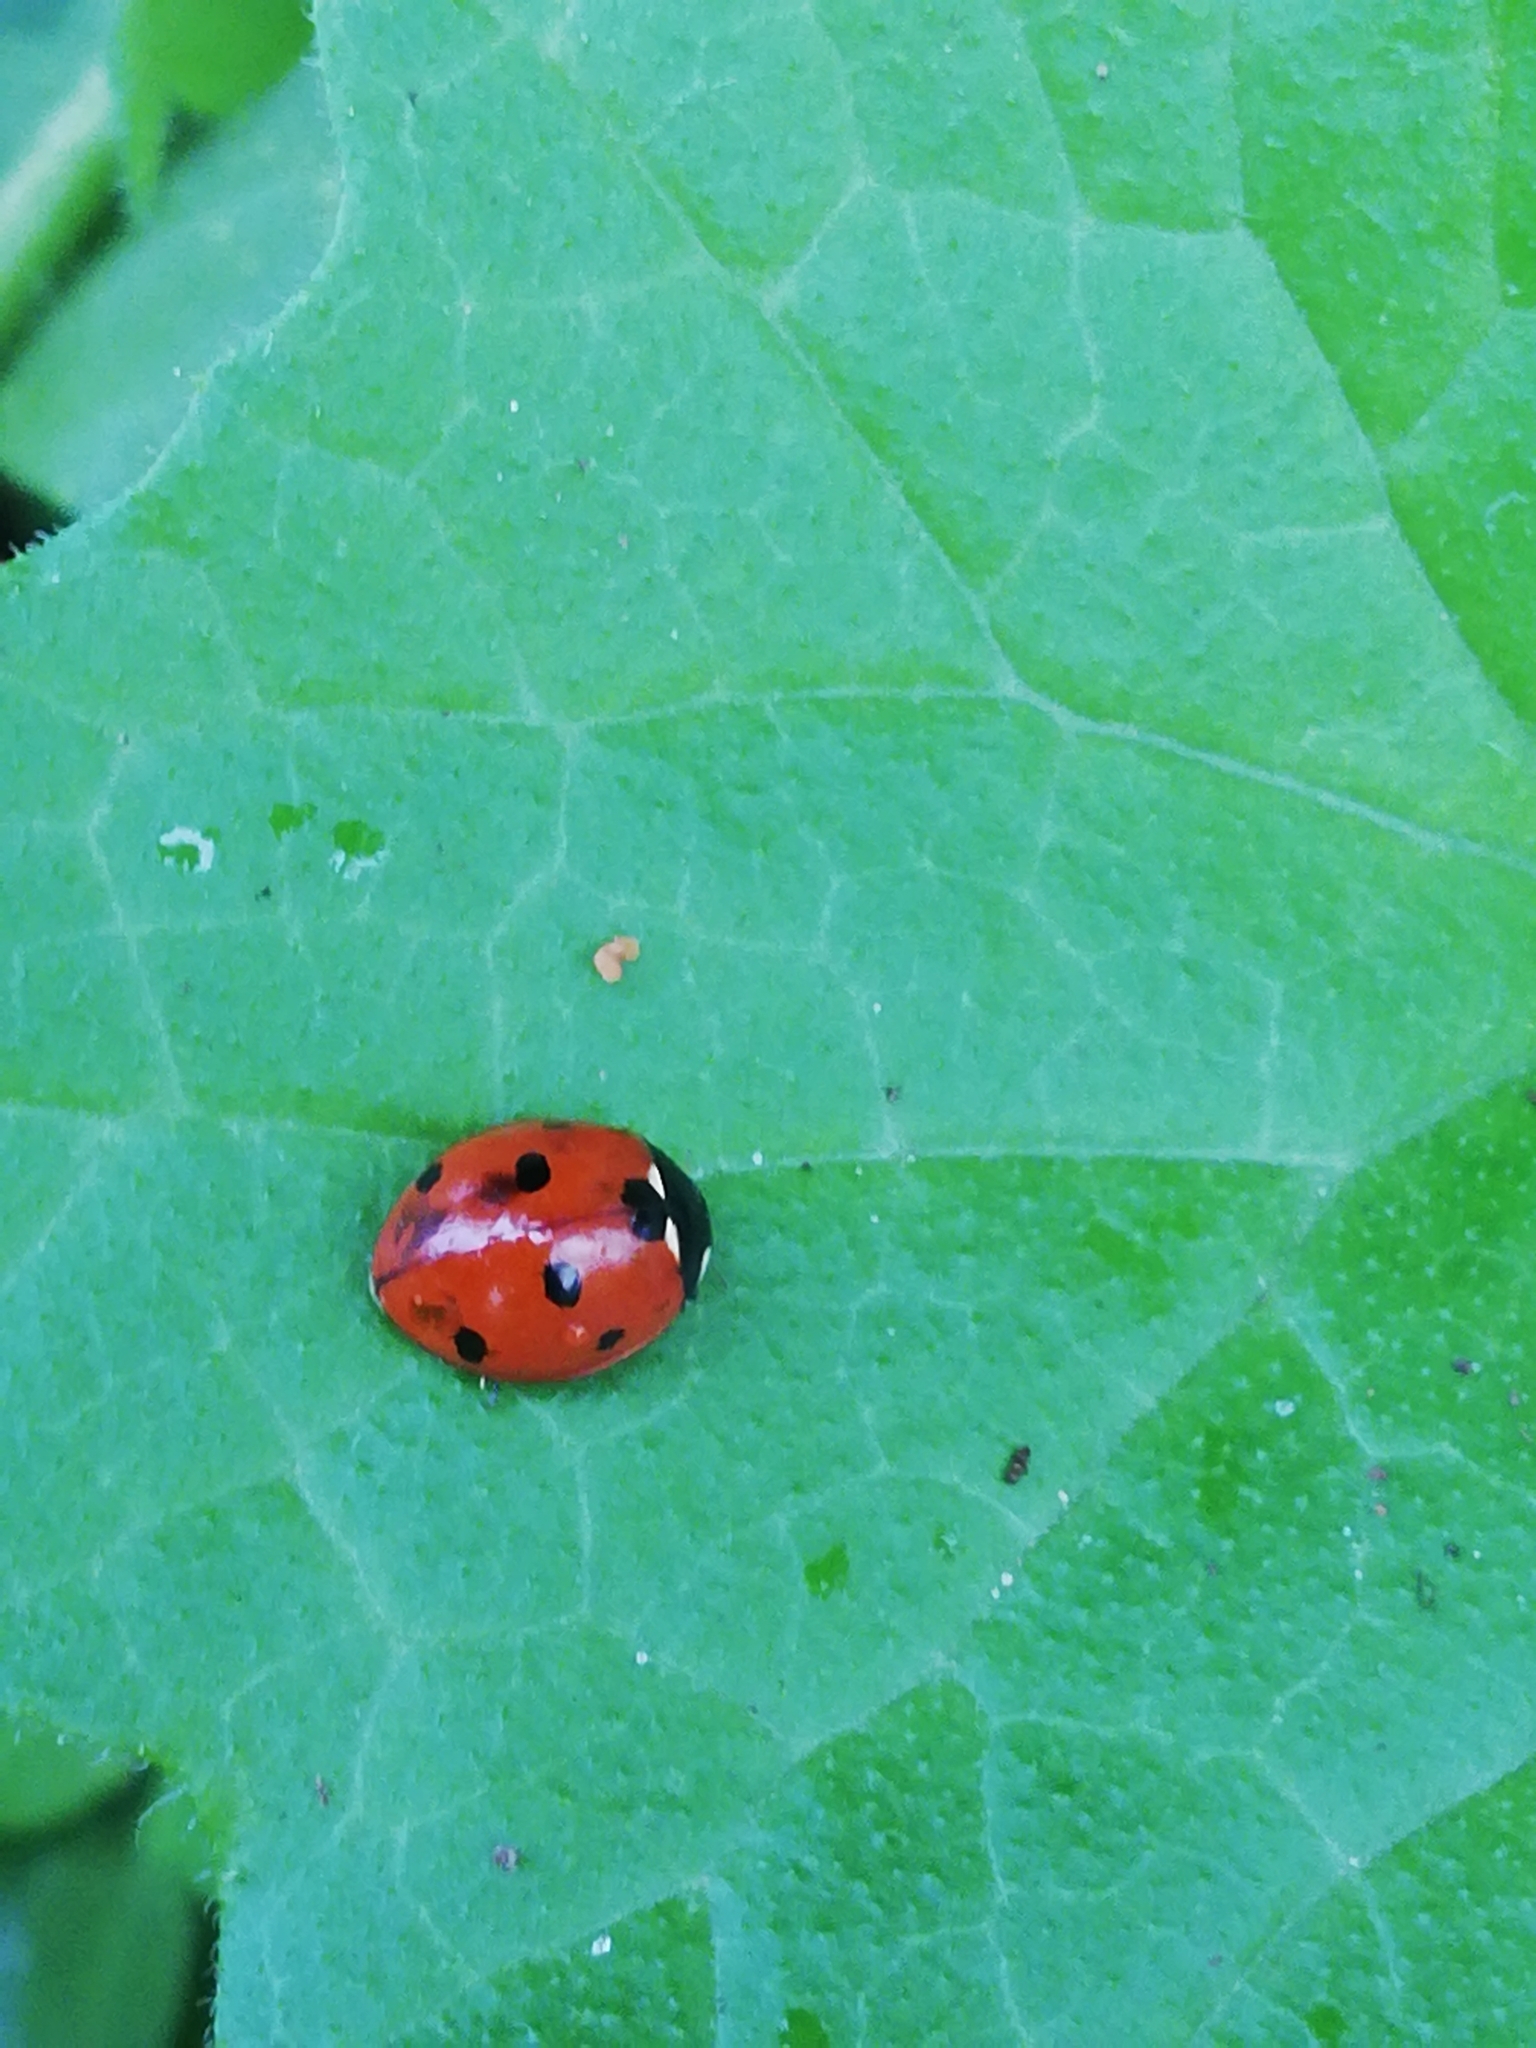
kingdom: Animalia
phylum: Arthropoda
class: Insecta
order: Coleoptera
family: Coccinellidae
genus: Coccinella
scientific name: Coccinella septempunctata
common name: Sevenspotted lady beetle
